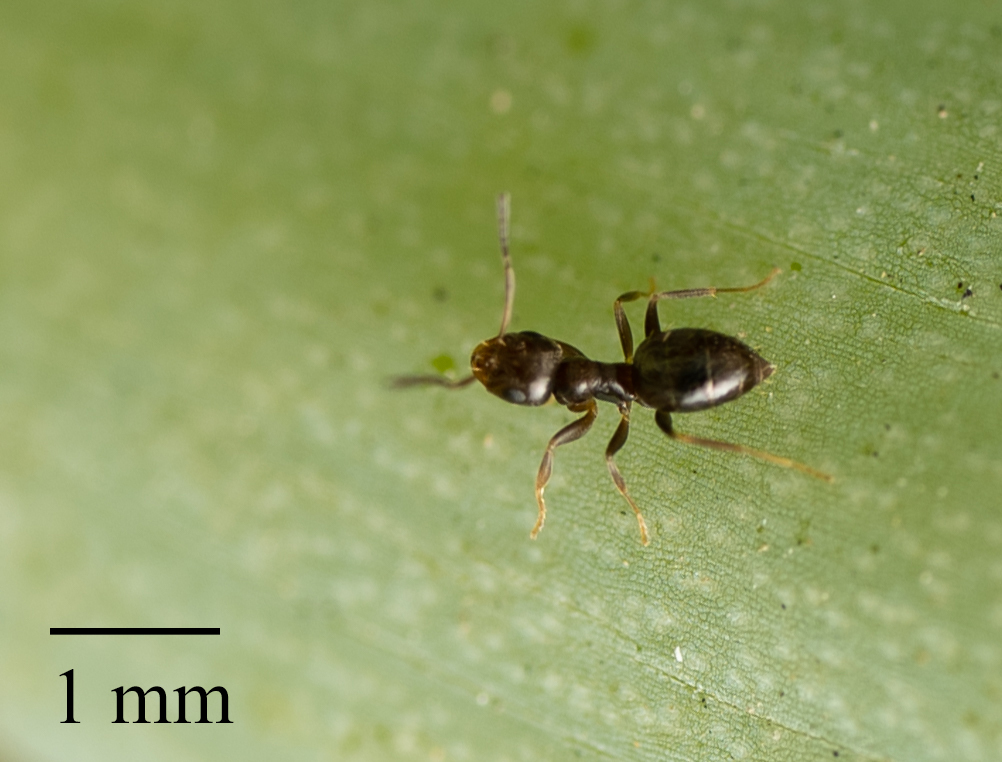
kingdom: Animalia
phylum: Arthropoda
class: Insecta
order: Hymenoptera
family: Formicidae
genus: Brachymyrmex
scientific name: Brachymyrmex patagonicus
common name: Dark rover ant
